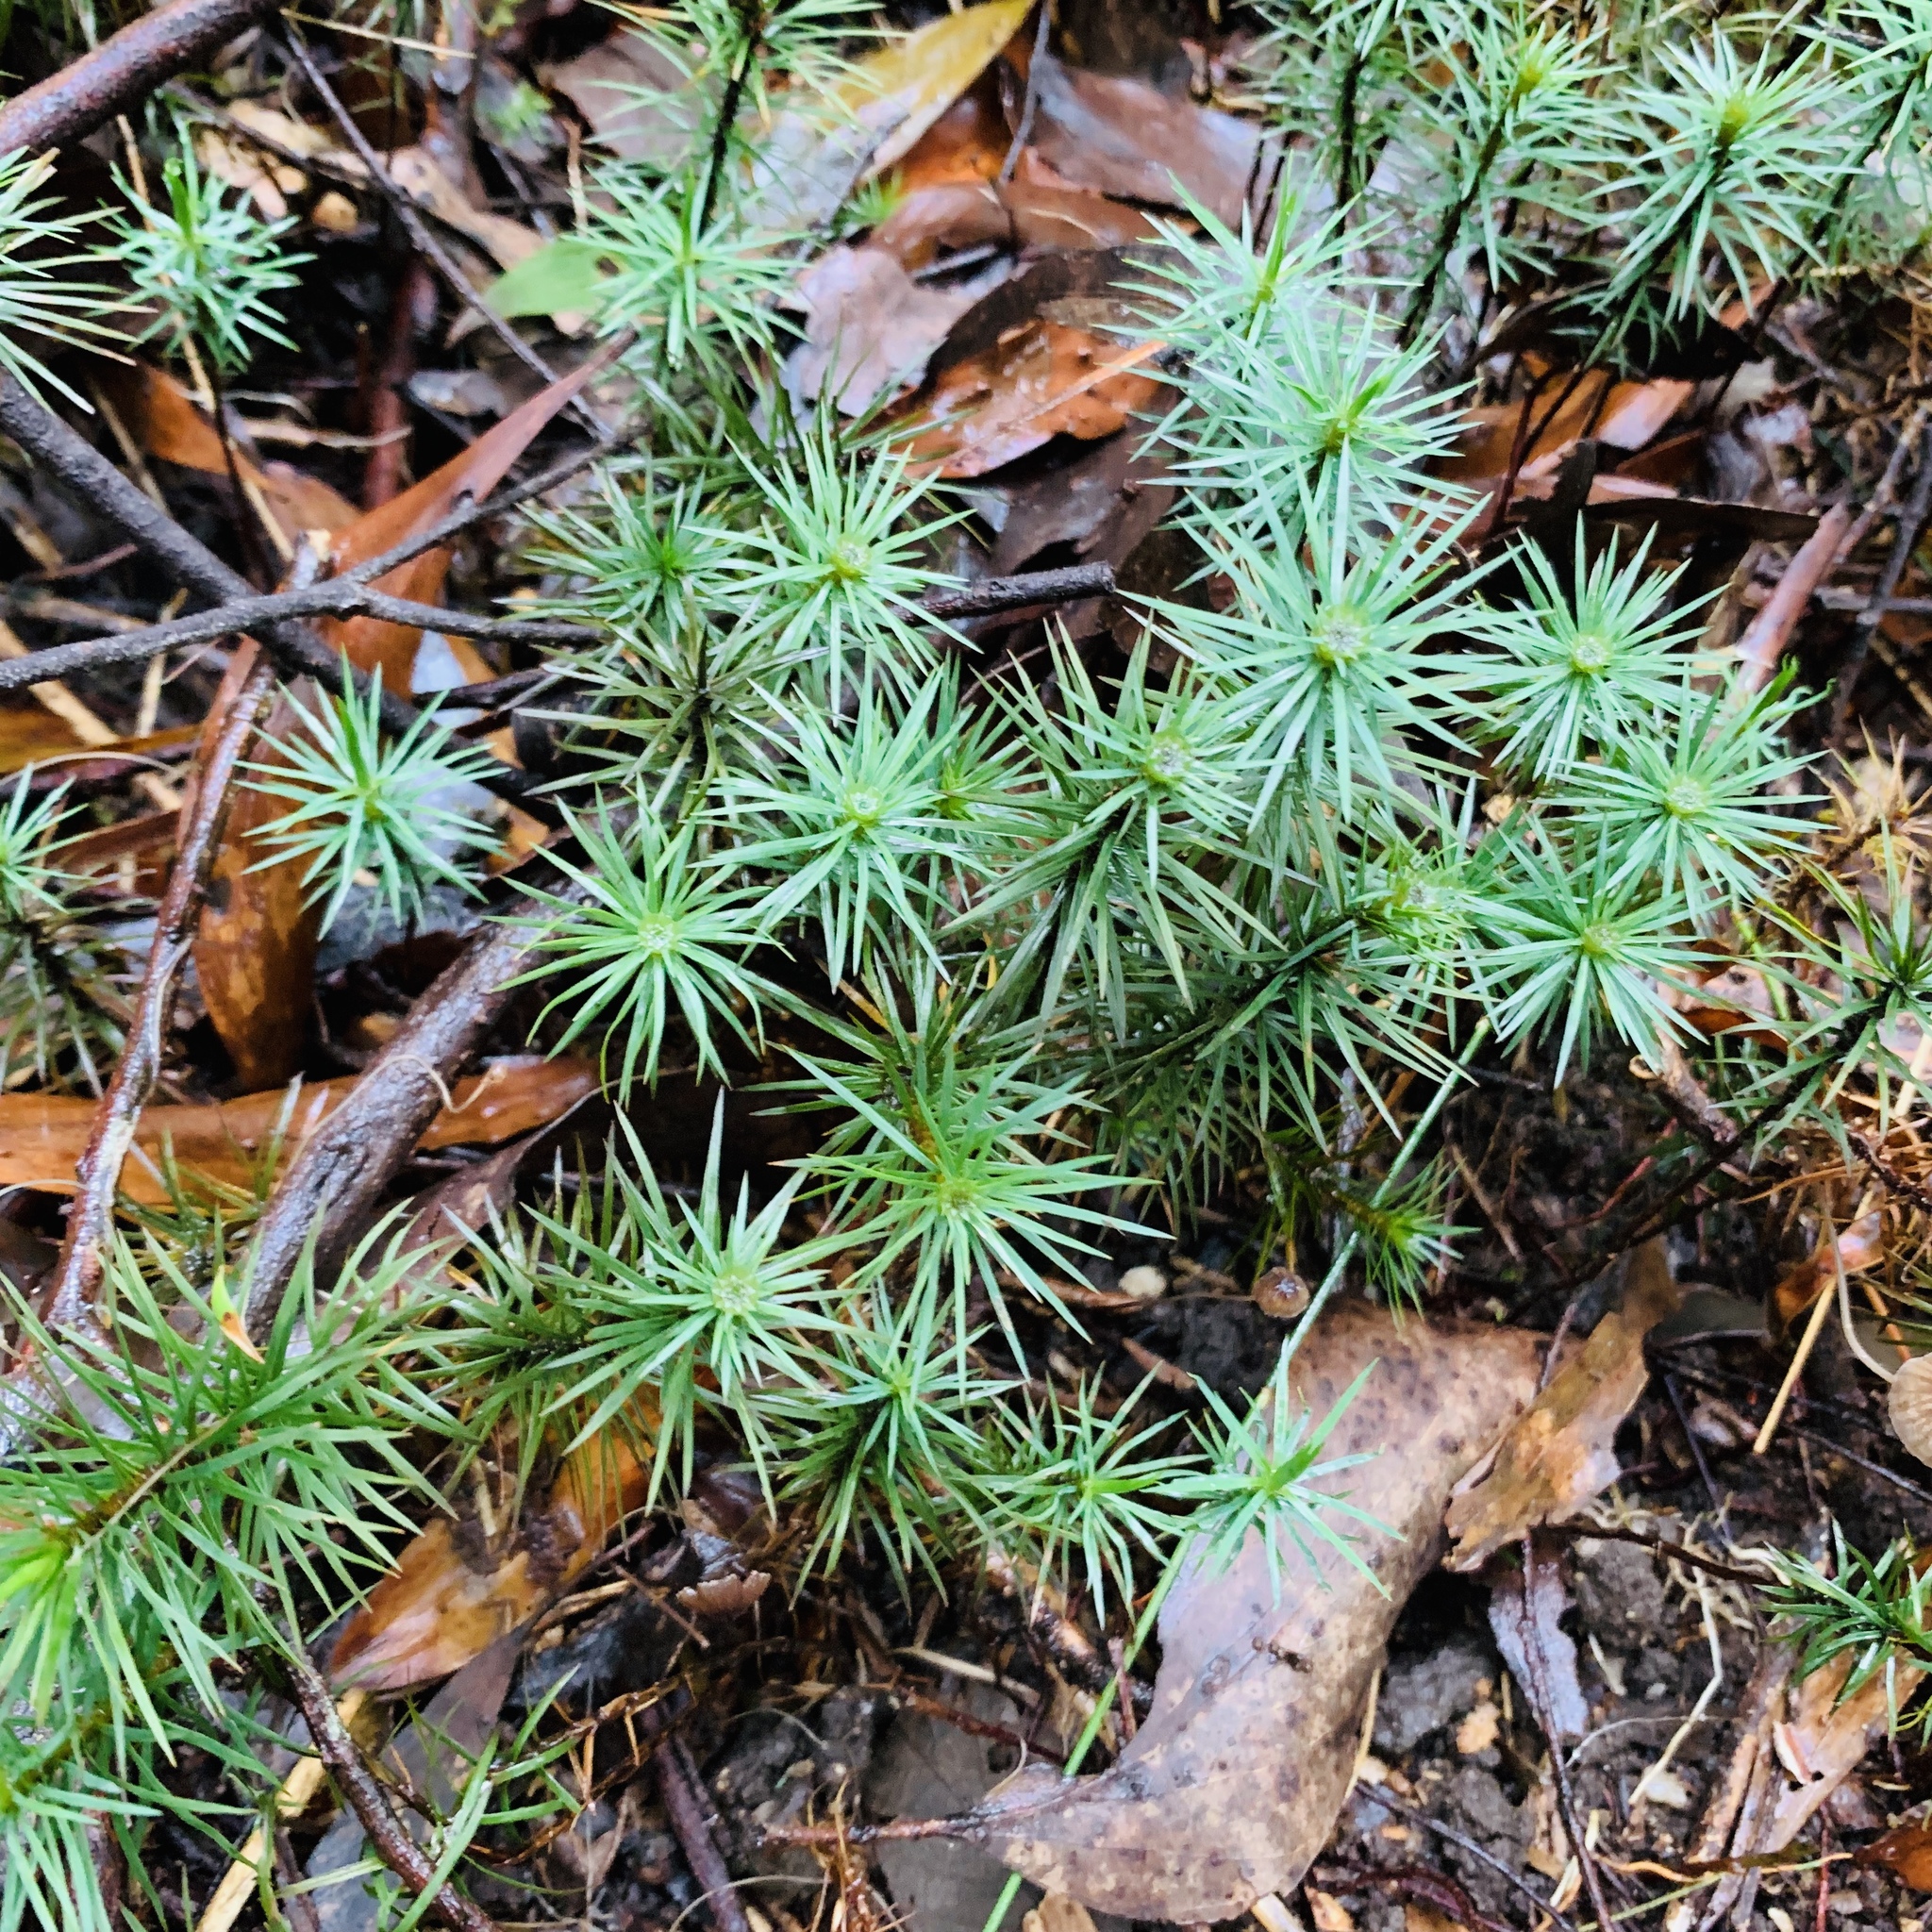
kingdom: Plantae
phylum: Bryophyta
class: Polytrichopsida
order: Polytrichales
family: Polytrichaceae
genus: Dawsonia
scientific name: Dawsonia superba
